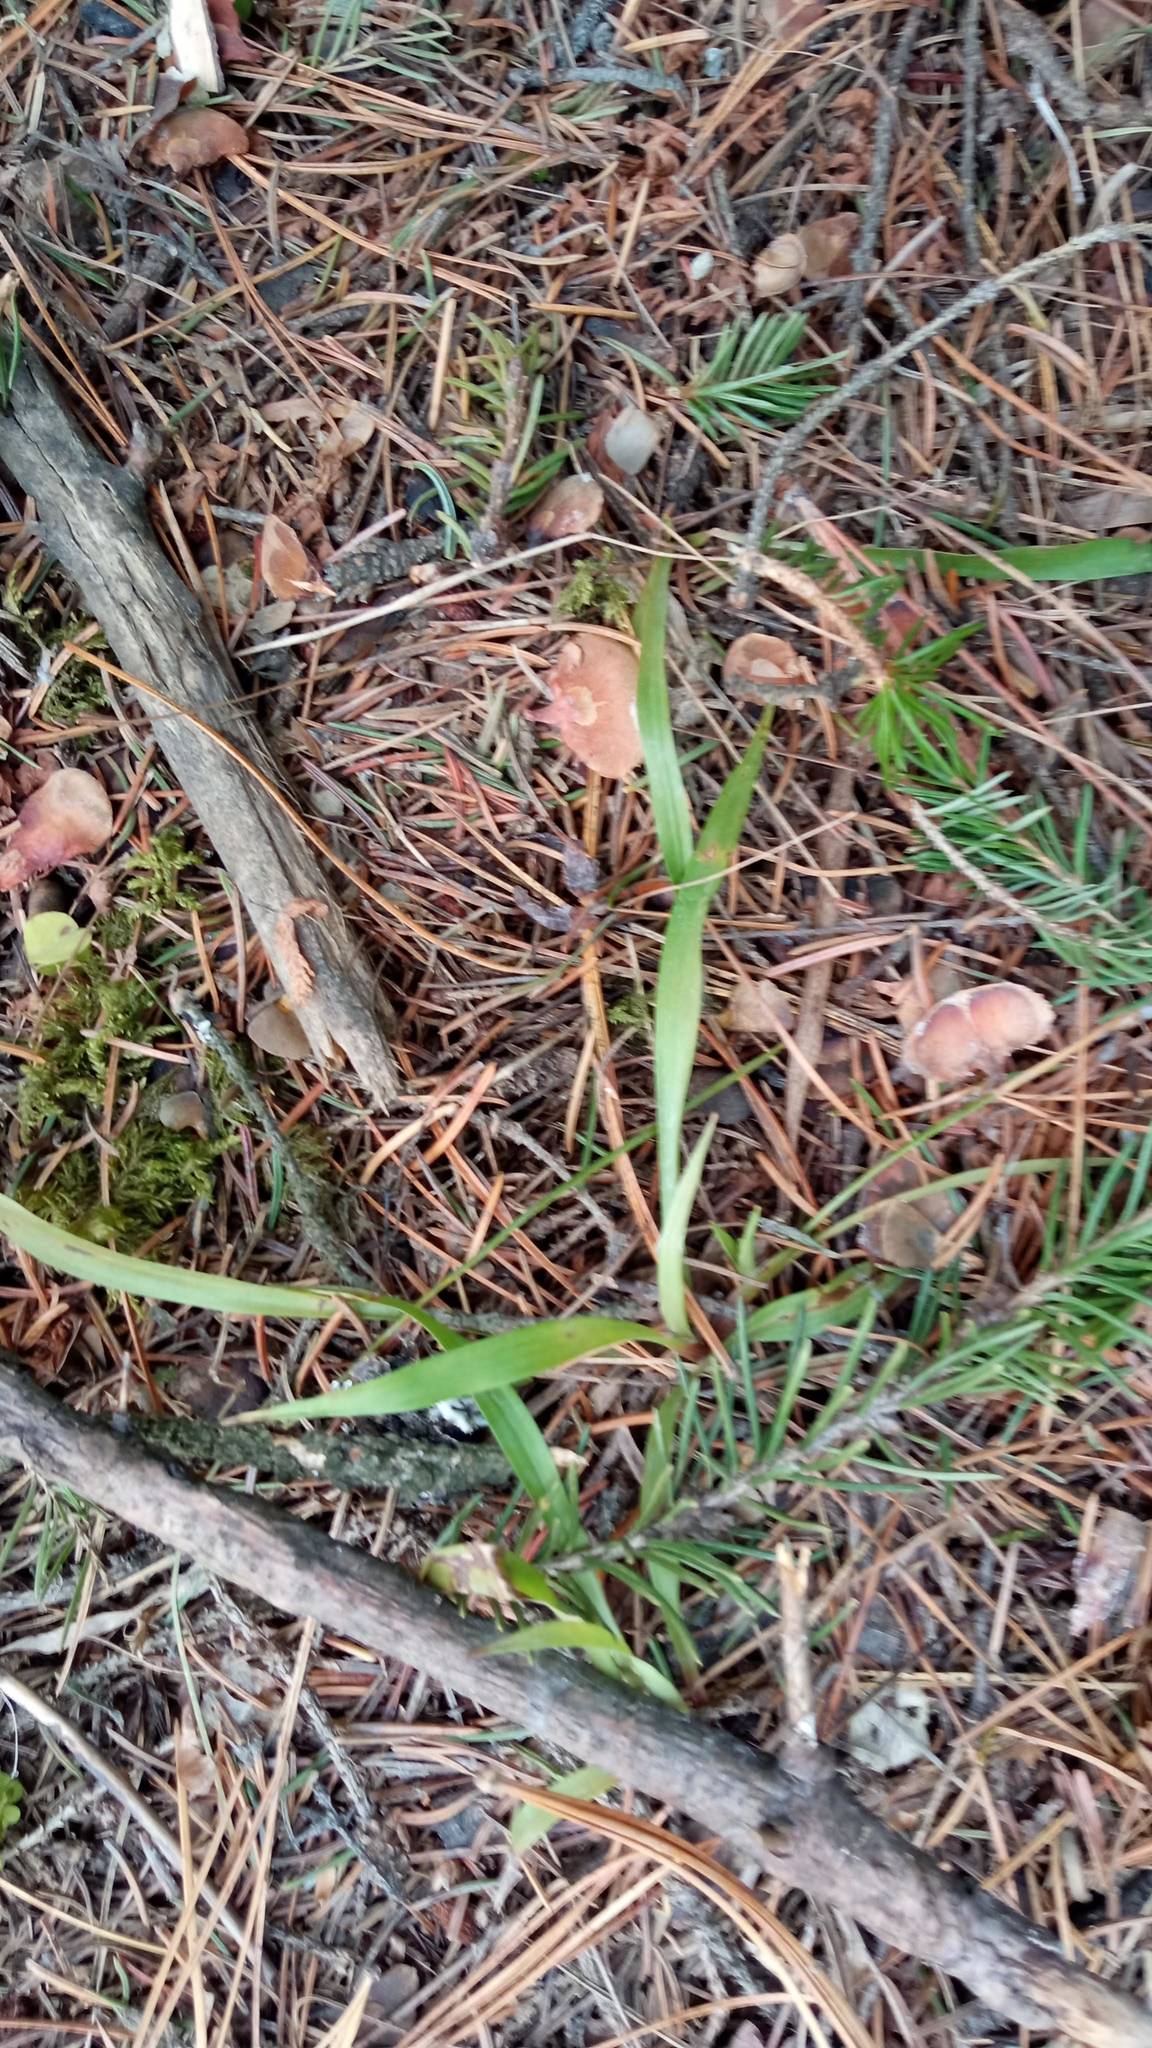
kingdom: Plantae
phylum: Tracheophyta
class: Liliopsida
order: Poales
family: Juncaceae
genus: Luzula
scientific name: Luzula pilosa
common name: Hairy wood-rush
